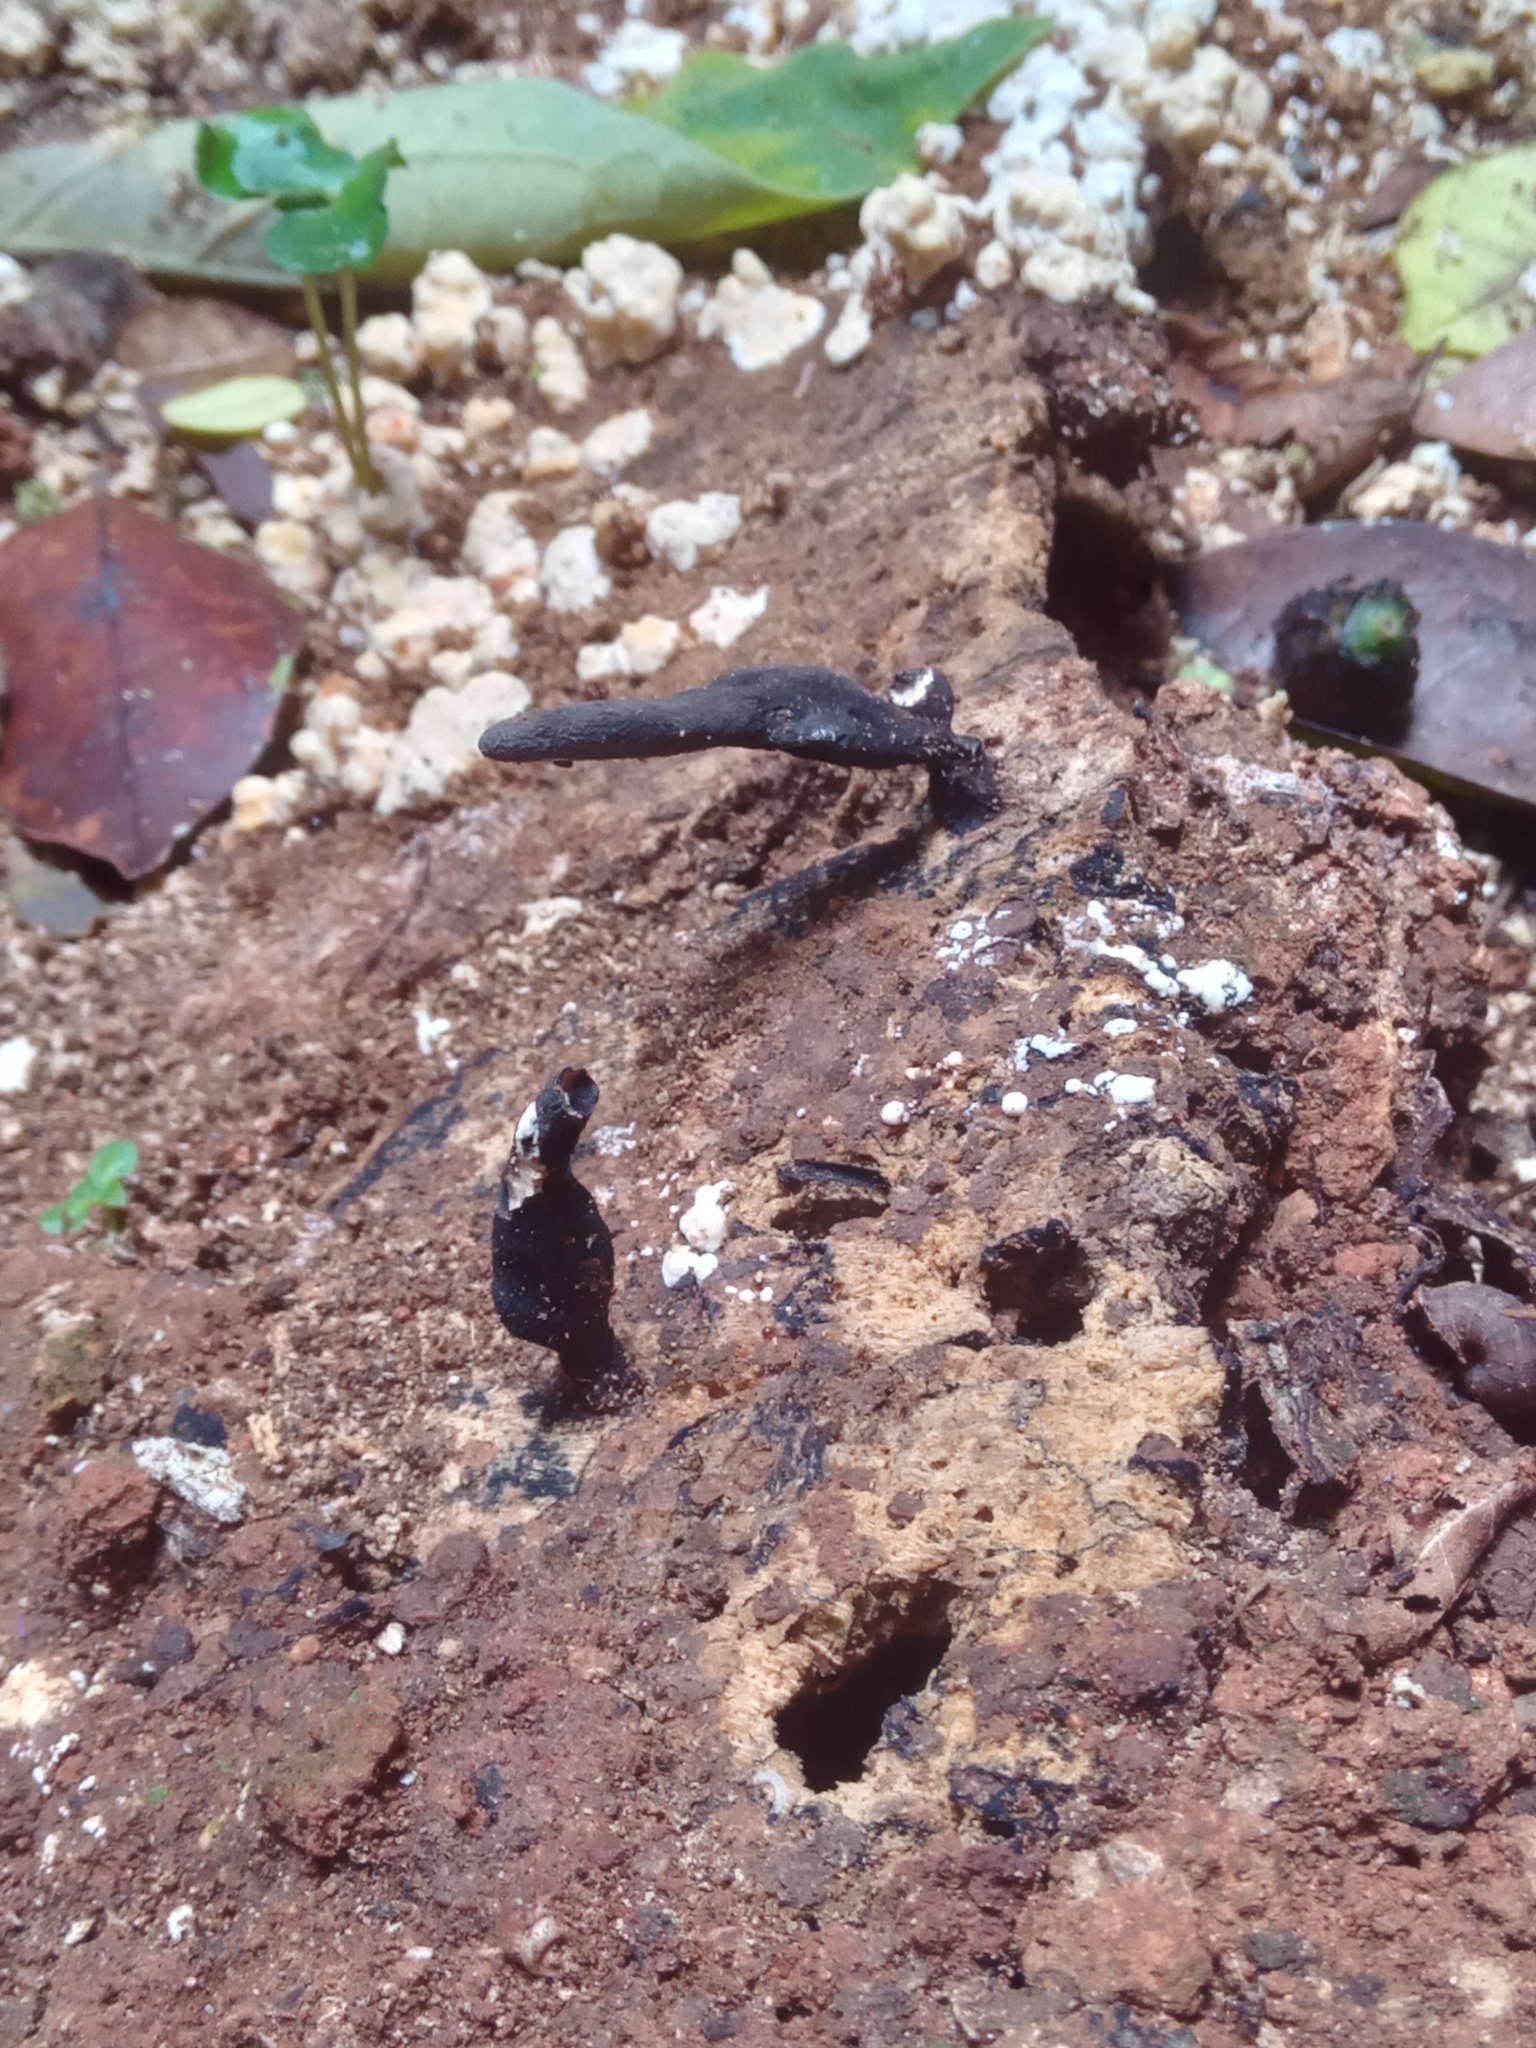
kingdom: Fungi
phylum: Ascomycota
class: Sordariomycetes
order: Xylariales
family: Xylariaceae
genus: Xylaria
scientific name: Xylaria longipes
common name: Dead moll's fingers
